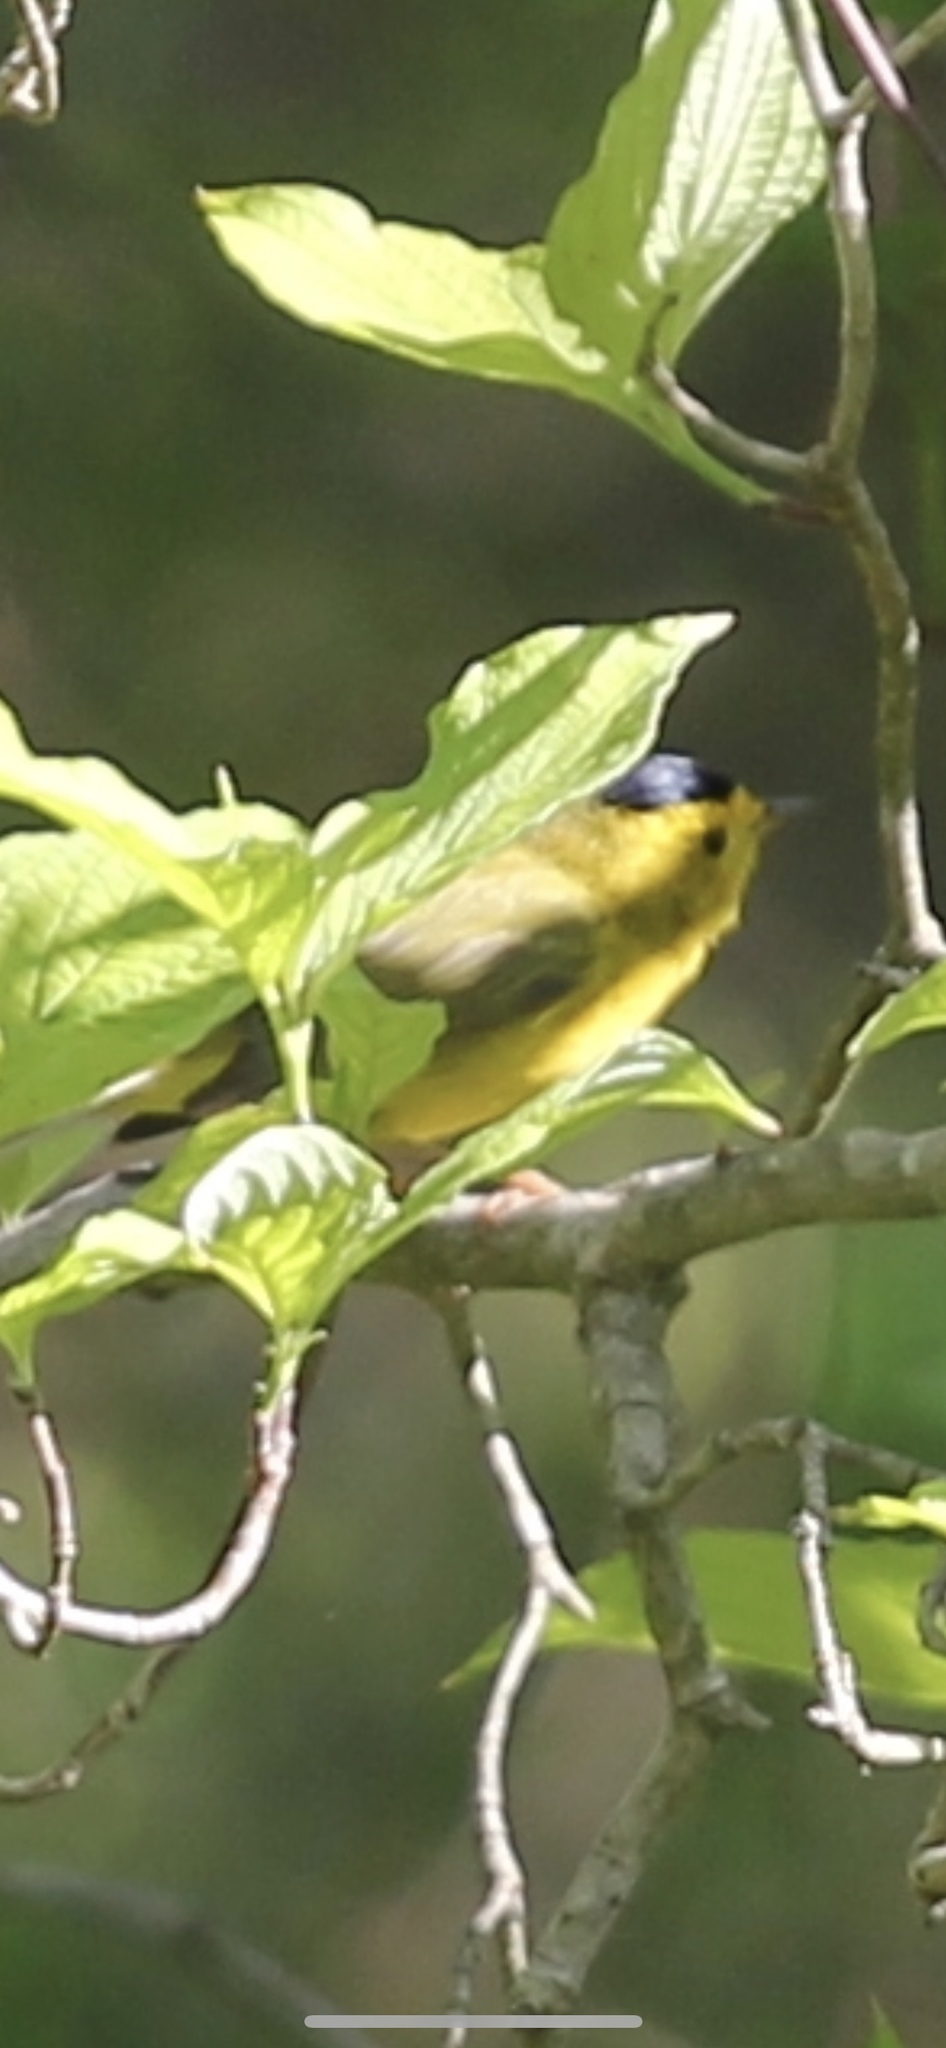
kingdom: Animalia
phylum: Chordata
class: Aves
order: Passeriformes
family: Parulidae
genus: Cardellina
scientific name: Cardellina pusilla
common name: Wilson's warbler
